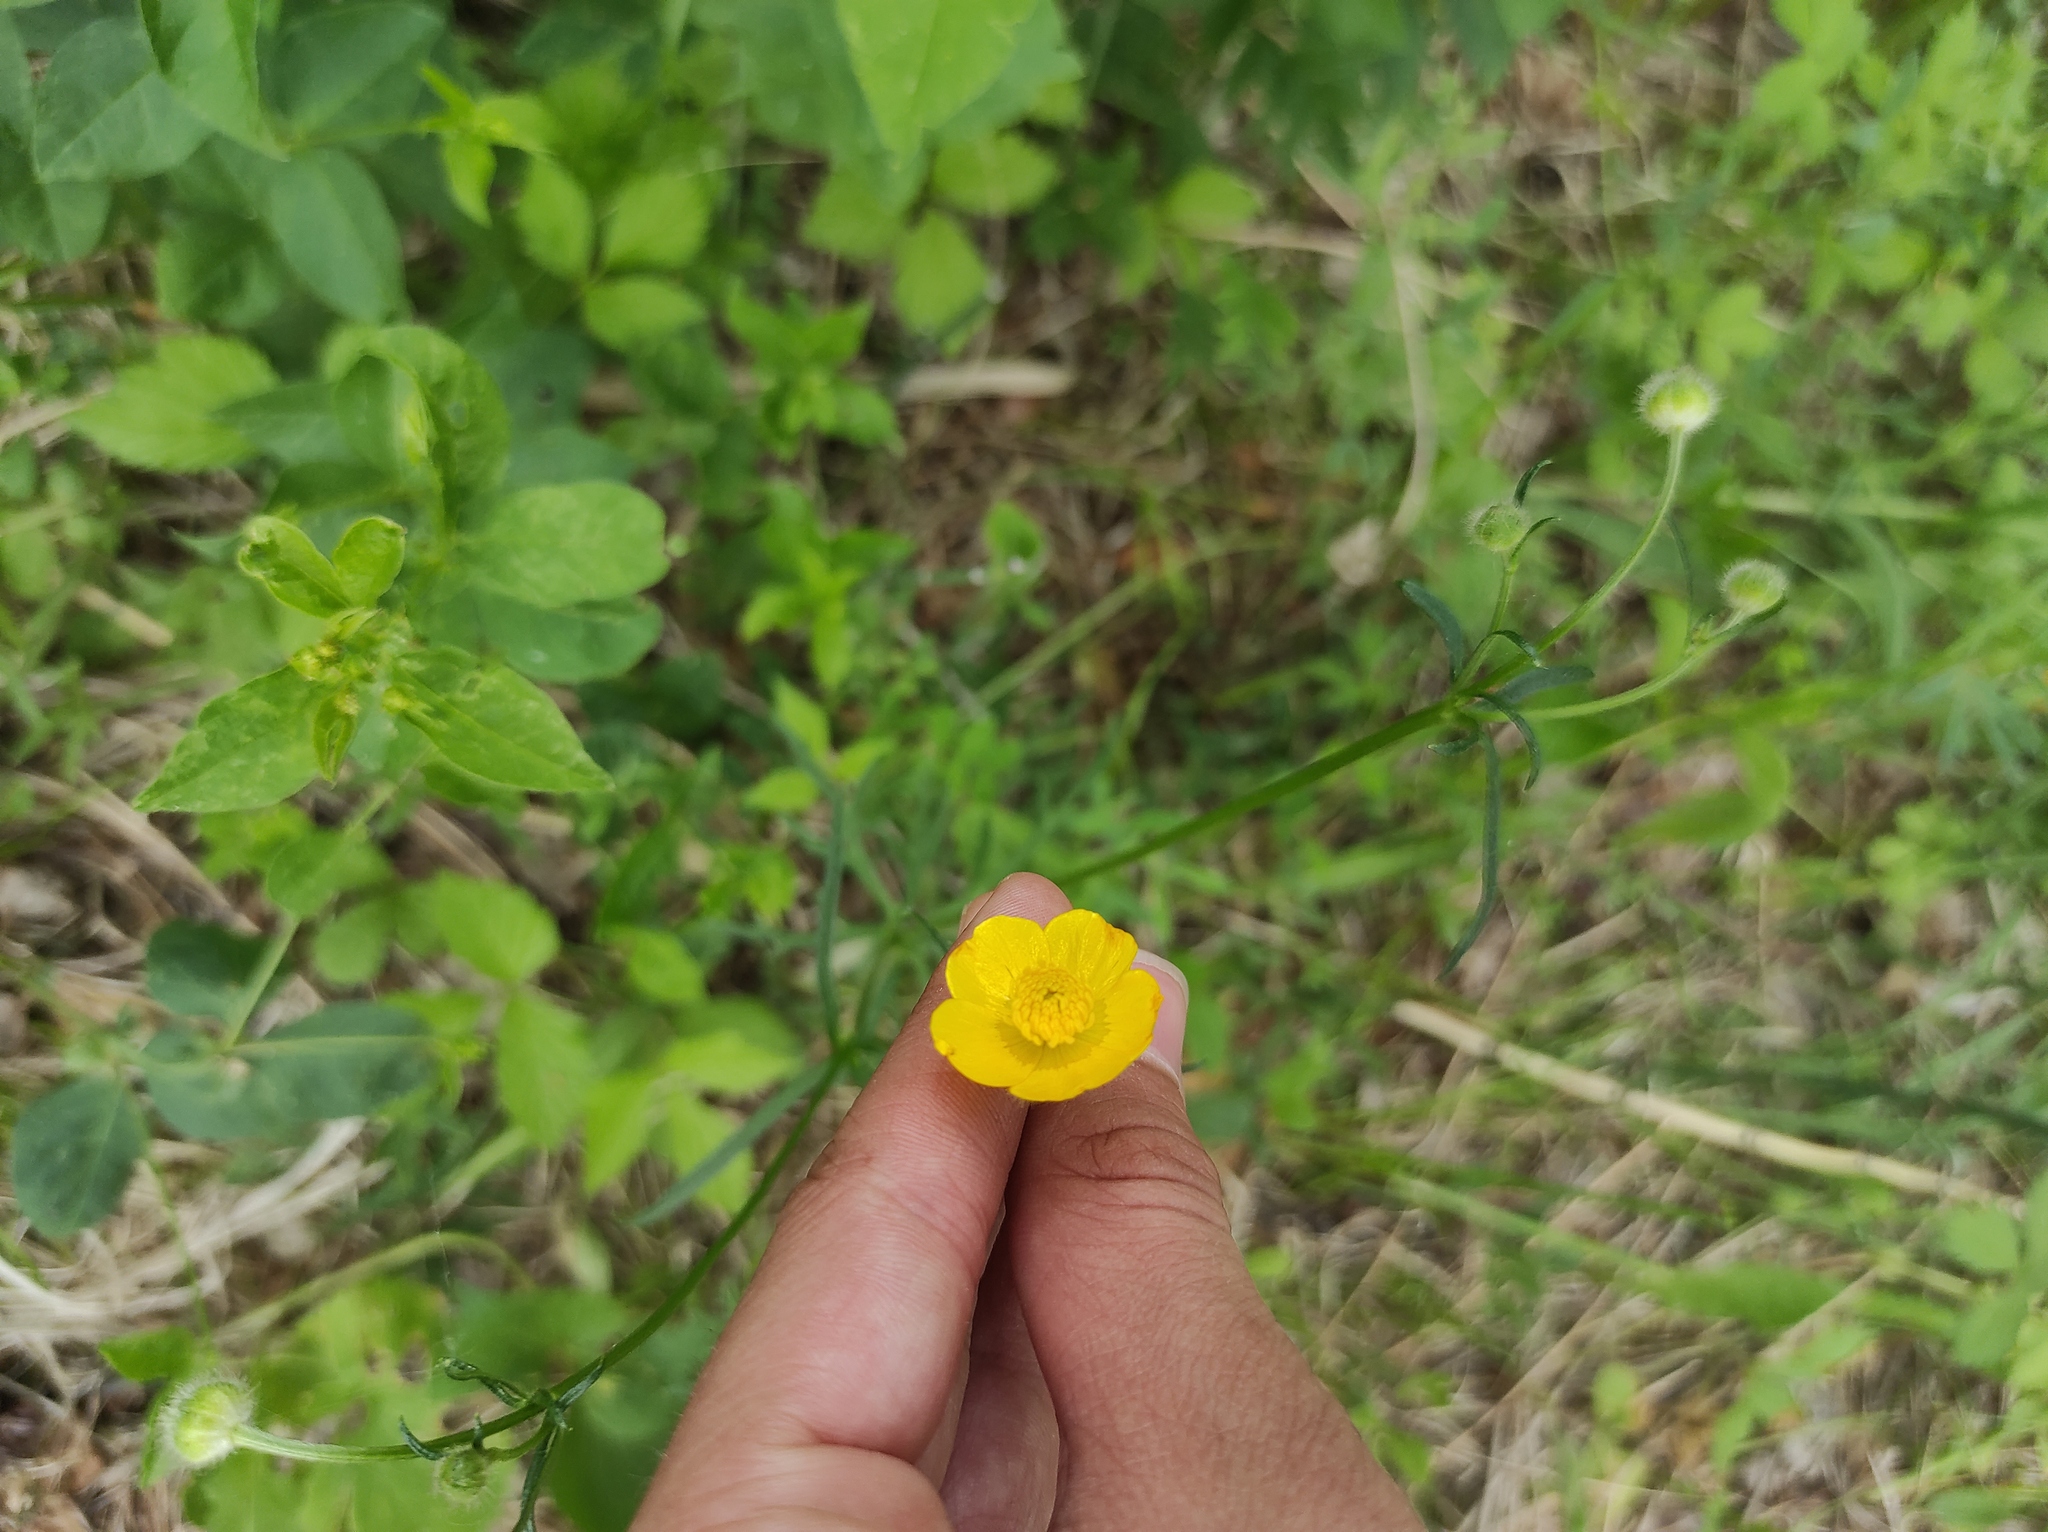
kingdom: Plantae
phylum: Tracheophyta
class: Magnoliopsida
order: Ranunculales
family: Ranunculaceae
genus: Ranunculus
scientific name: Ranunculus polyanthemos
